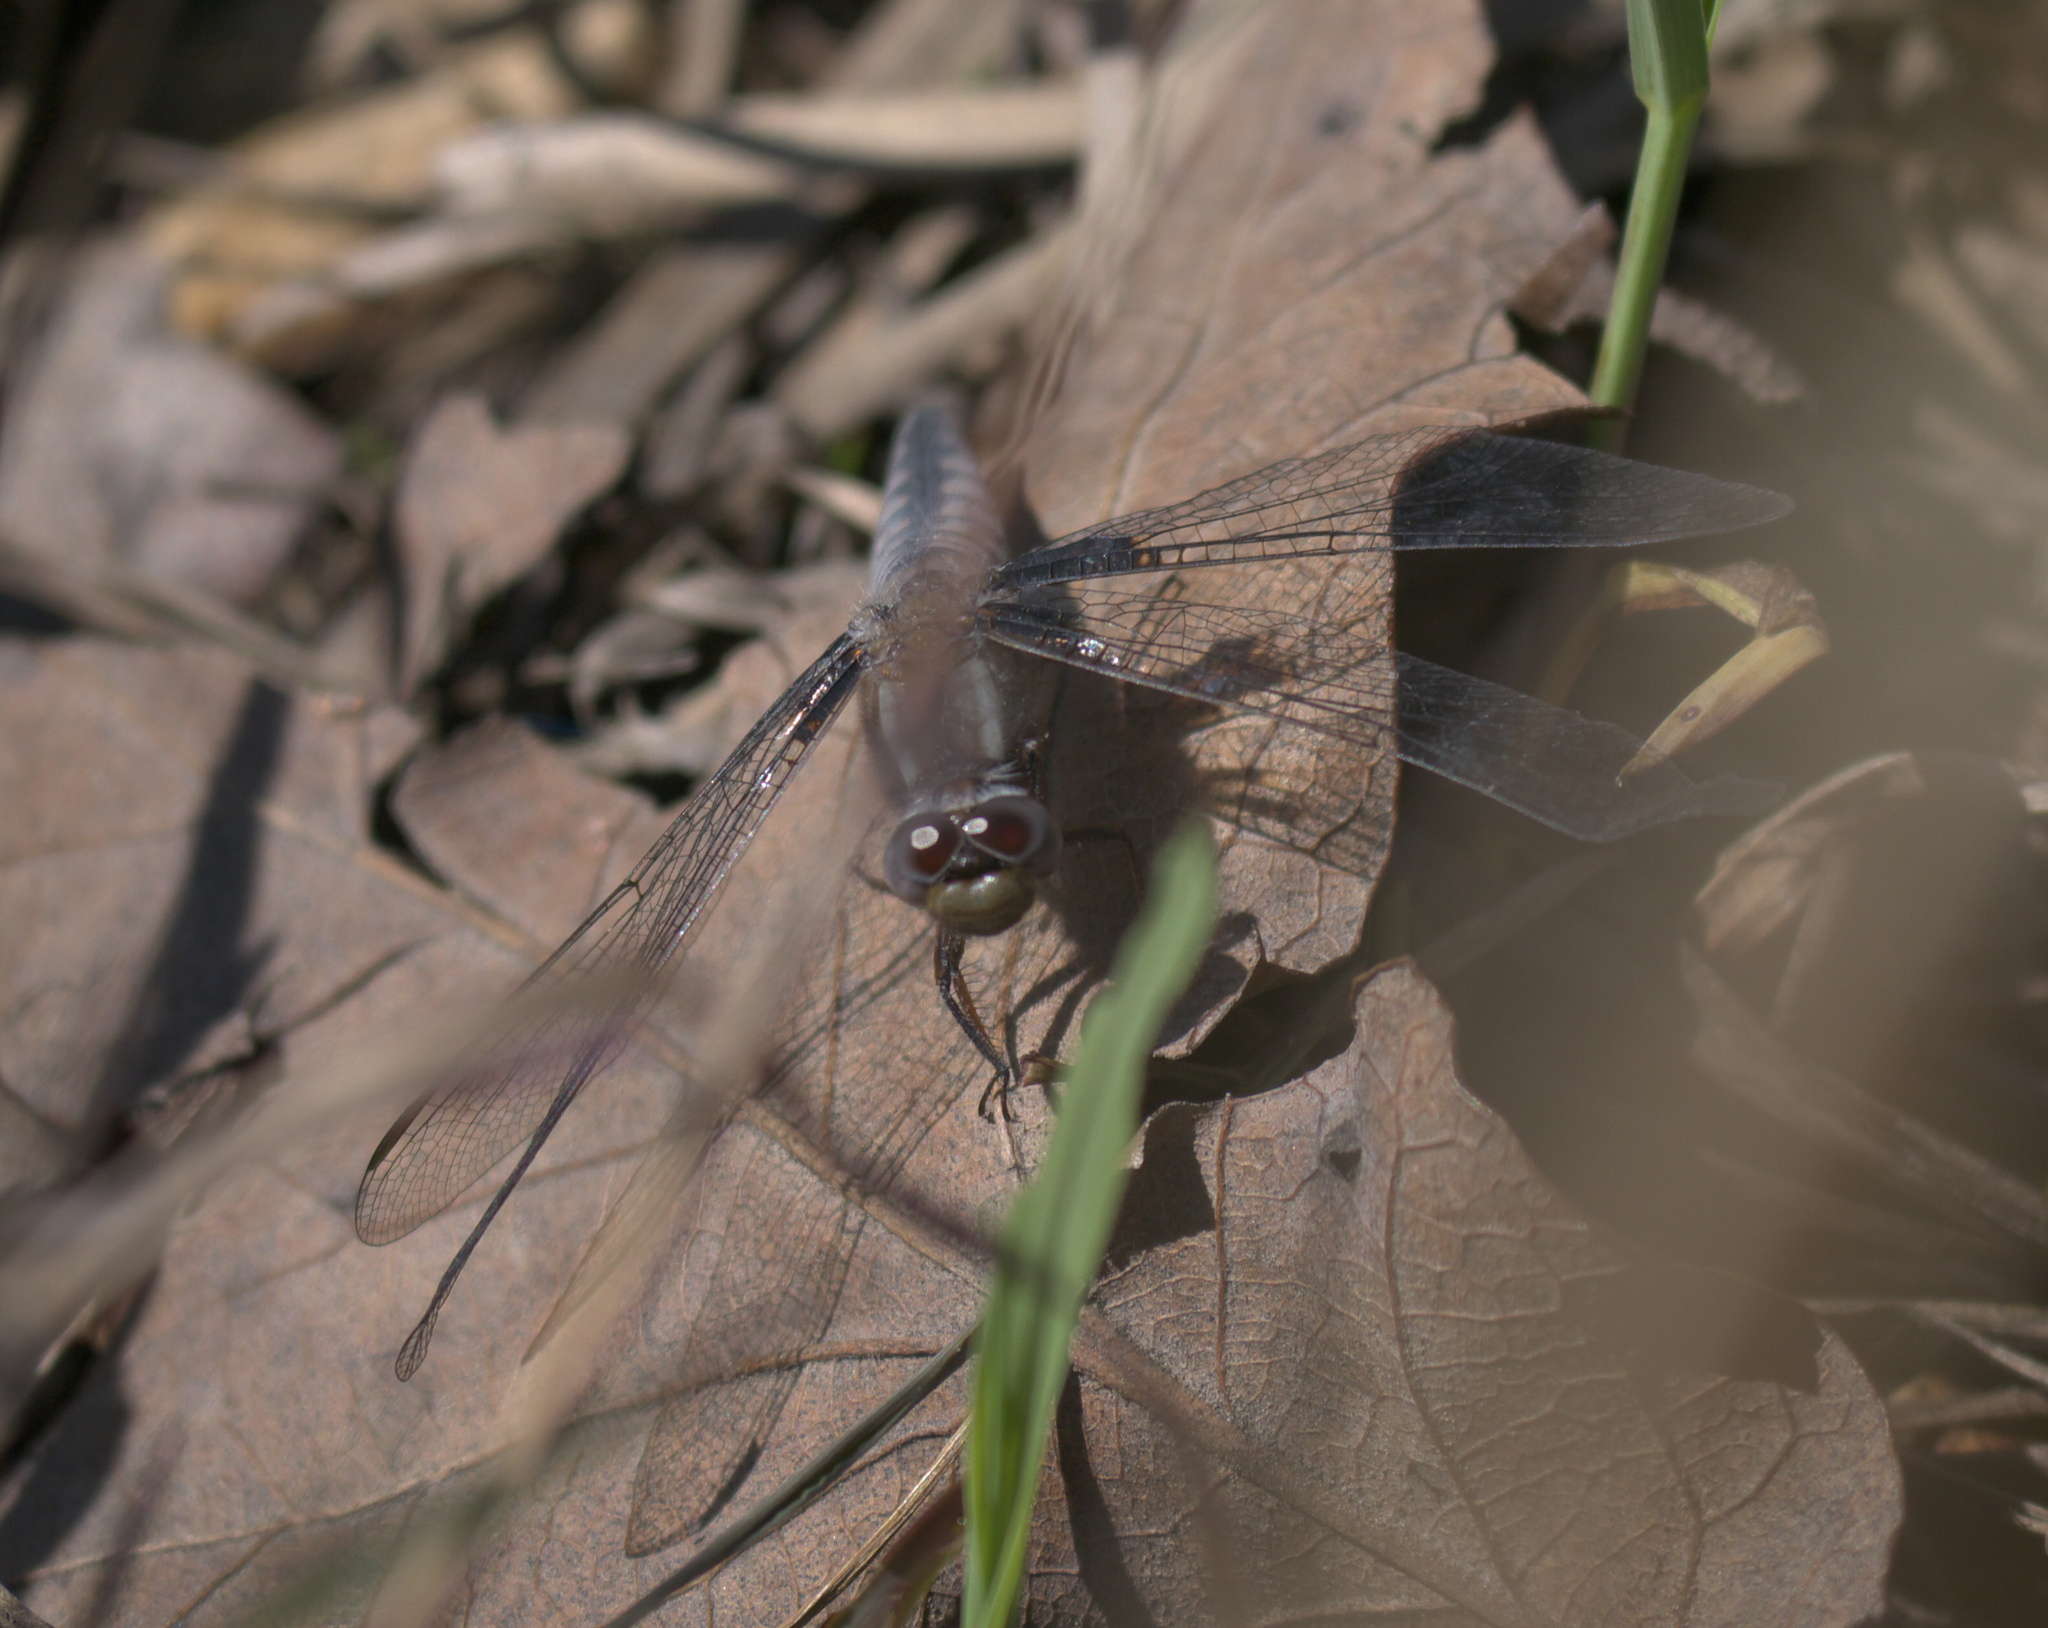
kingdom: Animalia
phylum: Arthropoda
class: Insecta
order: Odonata
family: Libellulidae
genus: Ladona
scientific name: Ladona deplanata
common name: Blue corporal
